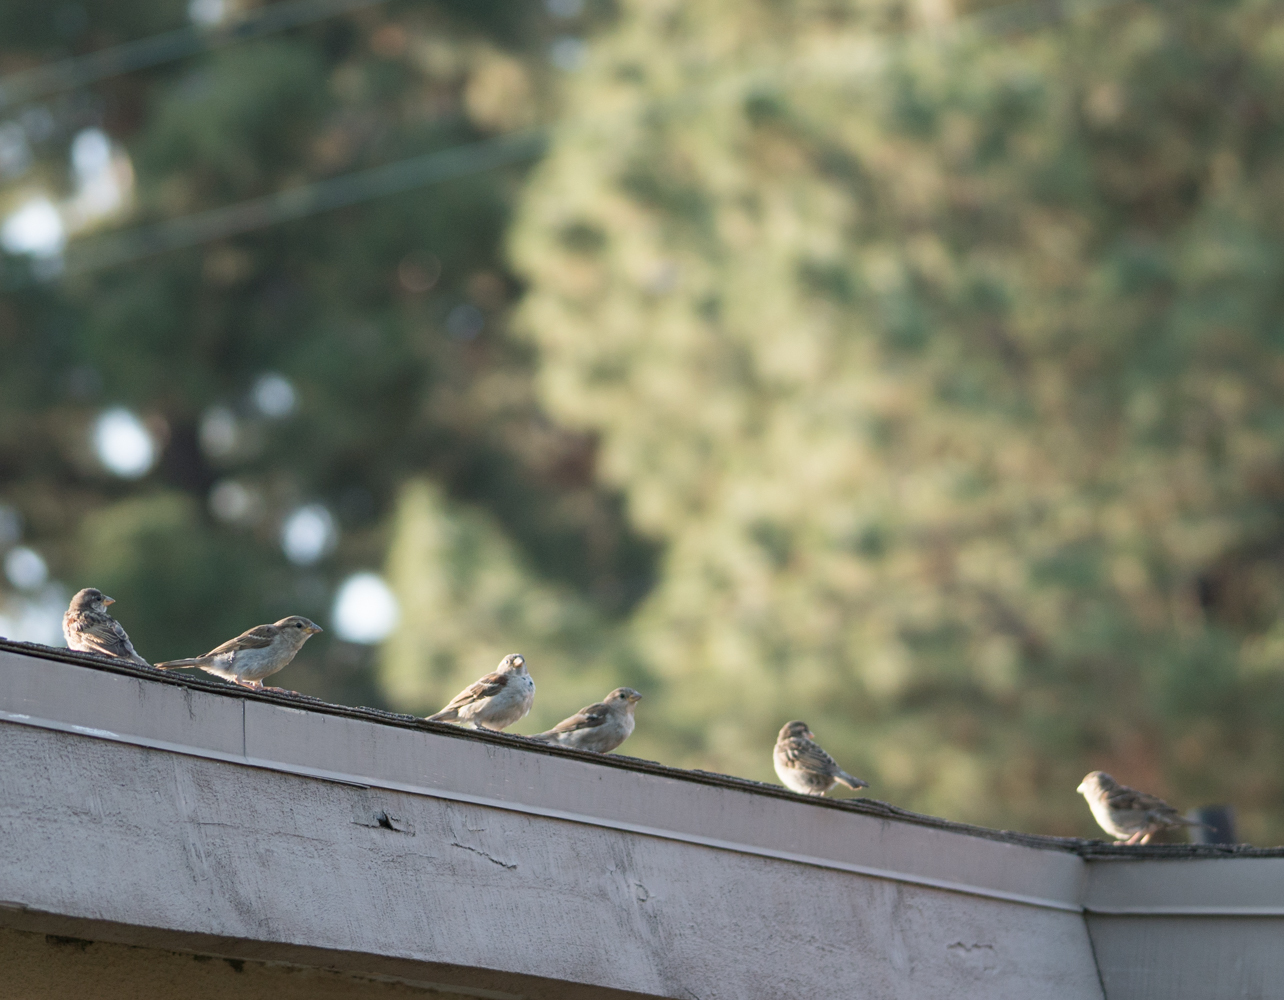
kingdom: Animalia
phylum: Chordata
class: Aves
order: Passeriformes
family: Passeridae
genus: Passer
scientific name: Passer domesticus
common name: House sparrow
